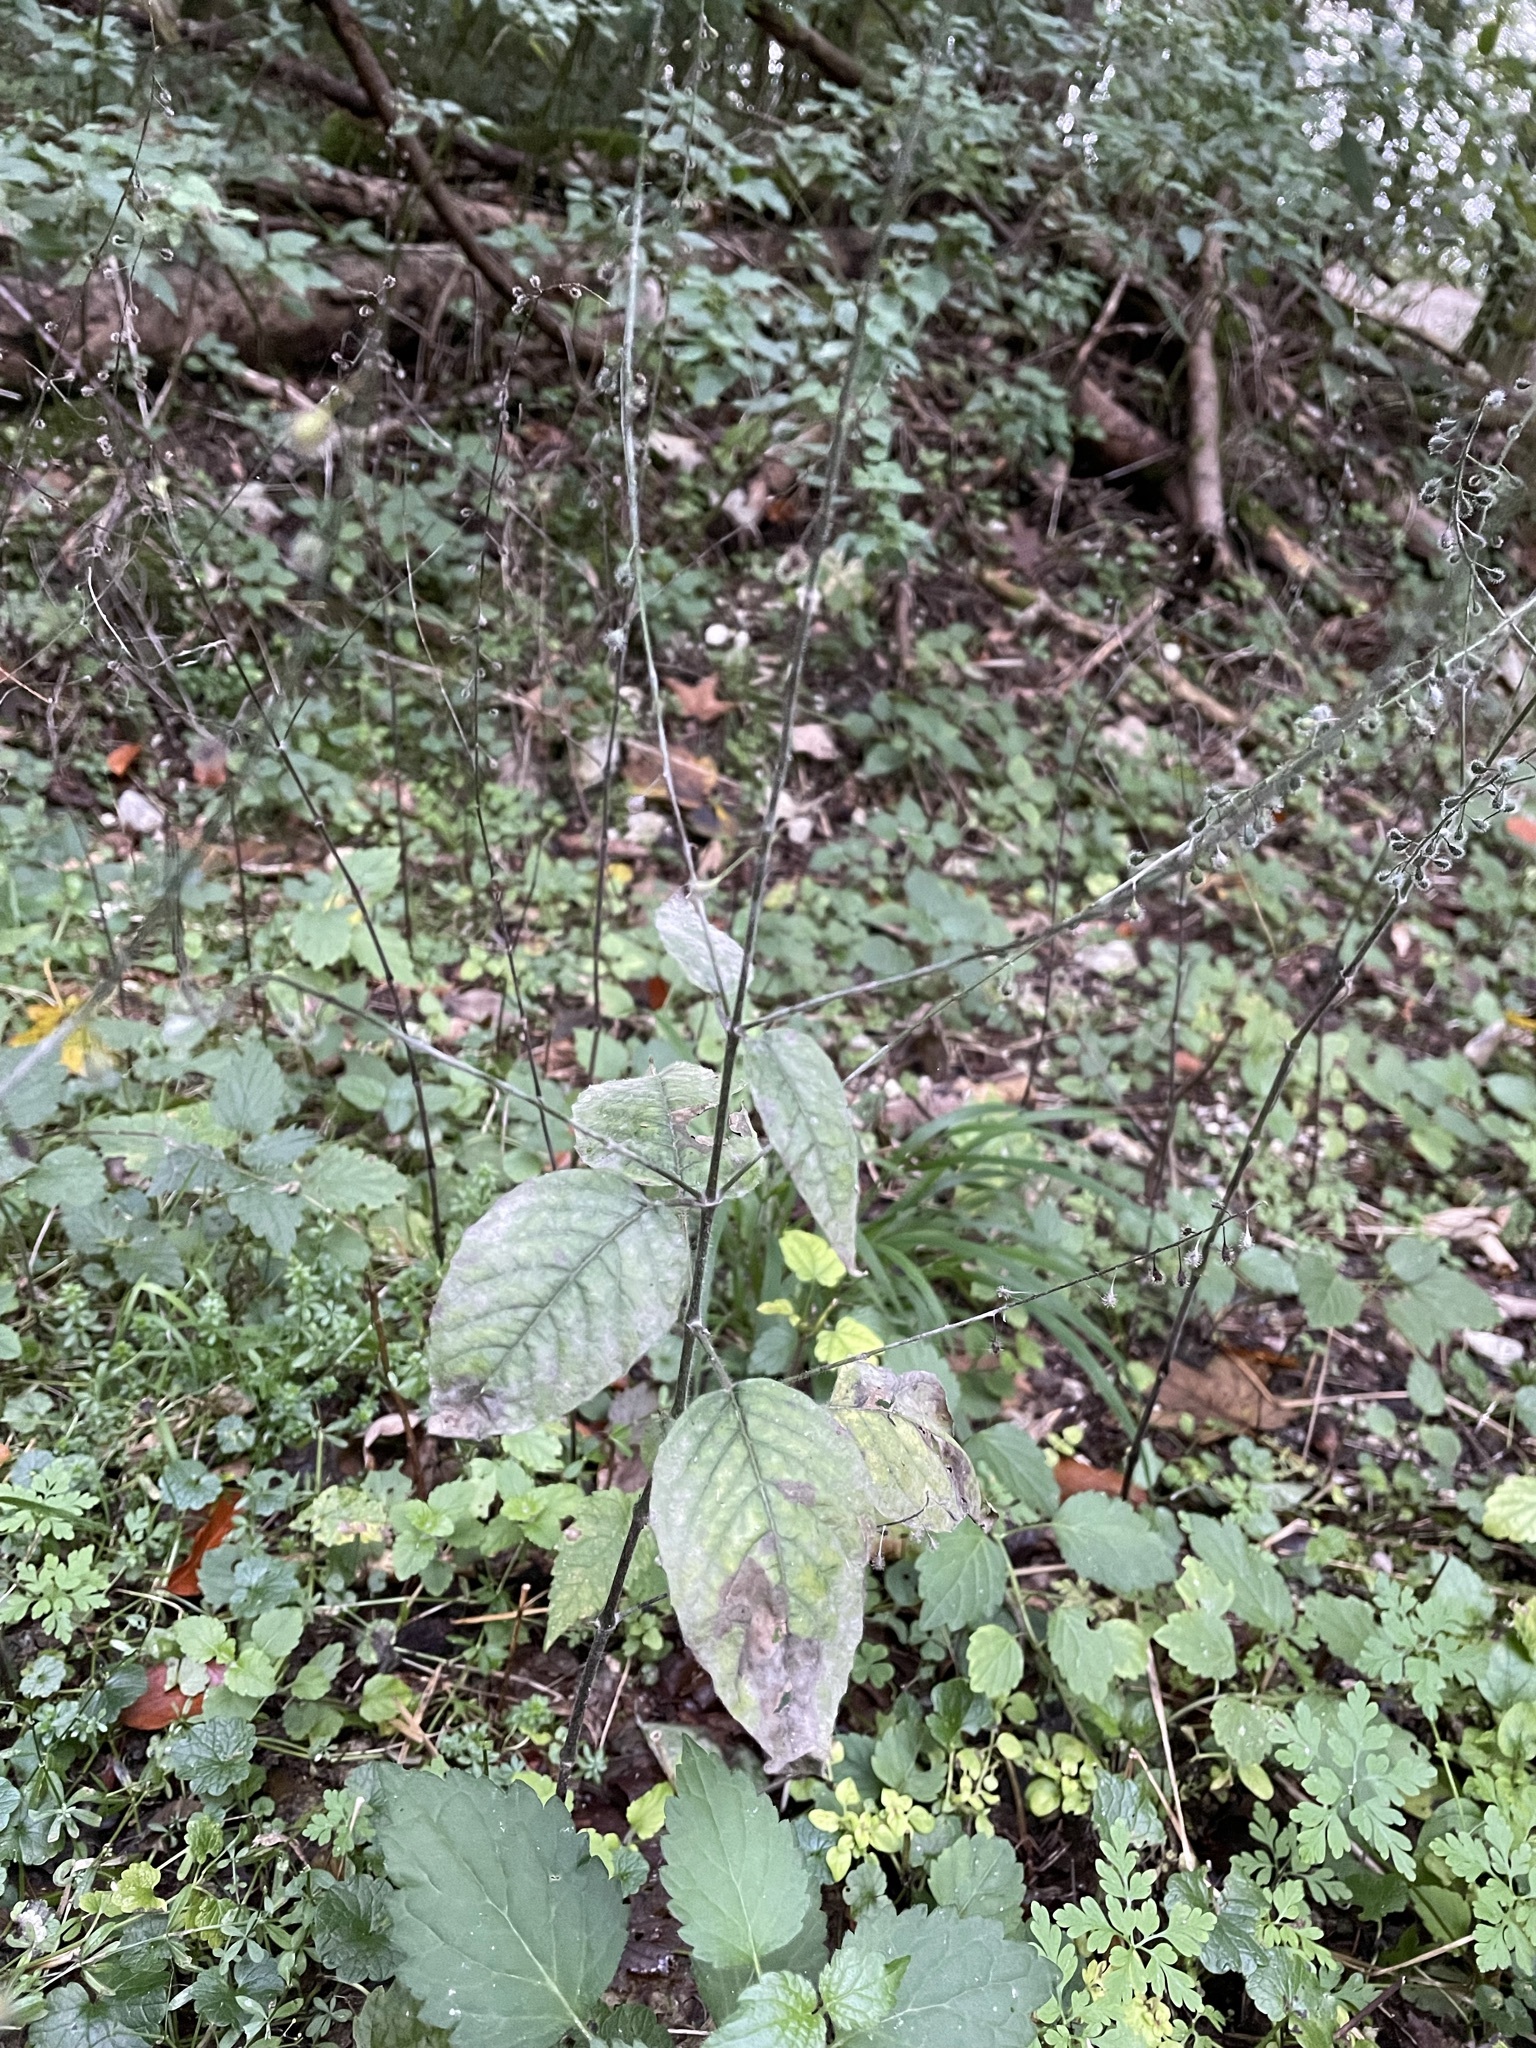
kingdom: Plantae
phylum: Tracheophyta
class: Magnoliopsida
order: Myrtales
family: Onagraceae
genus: Circaea
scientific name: Circaea lutetiana
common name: Enchanter's-nightshade
